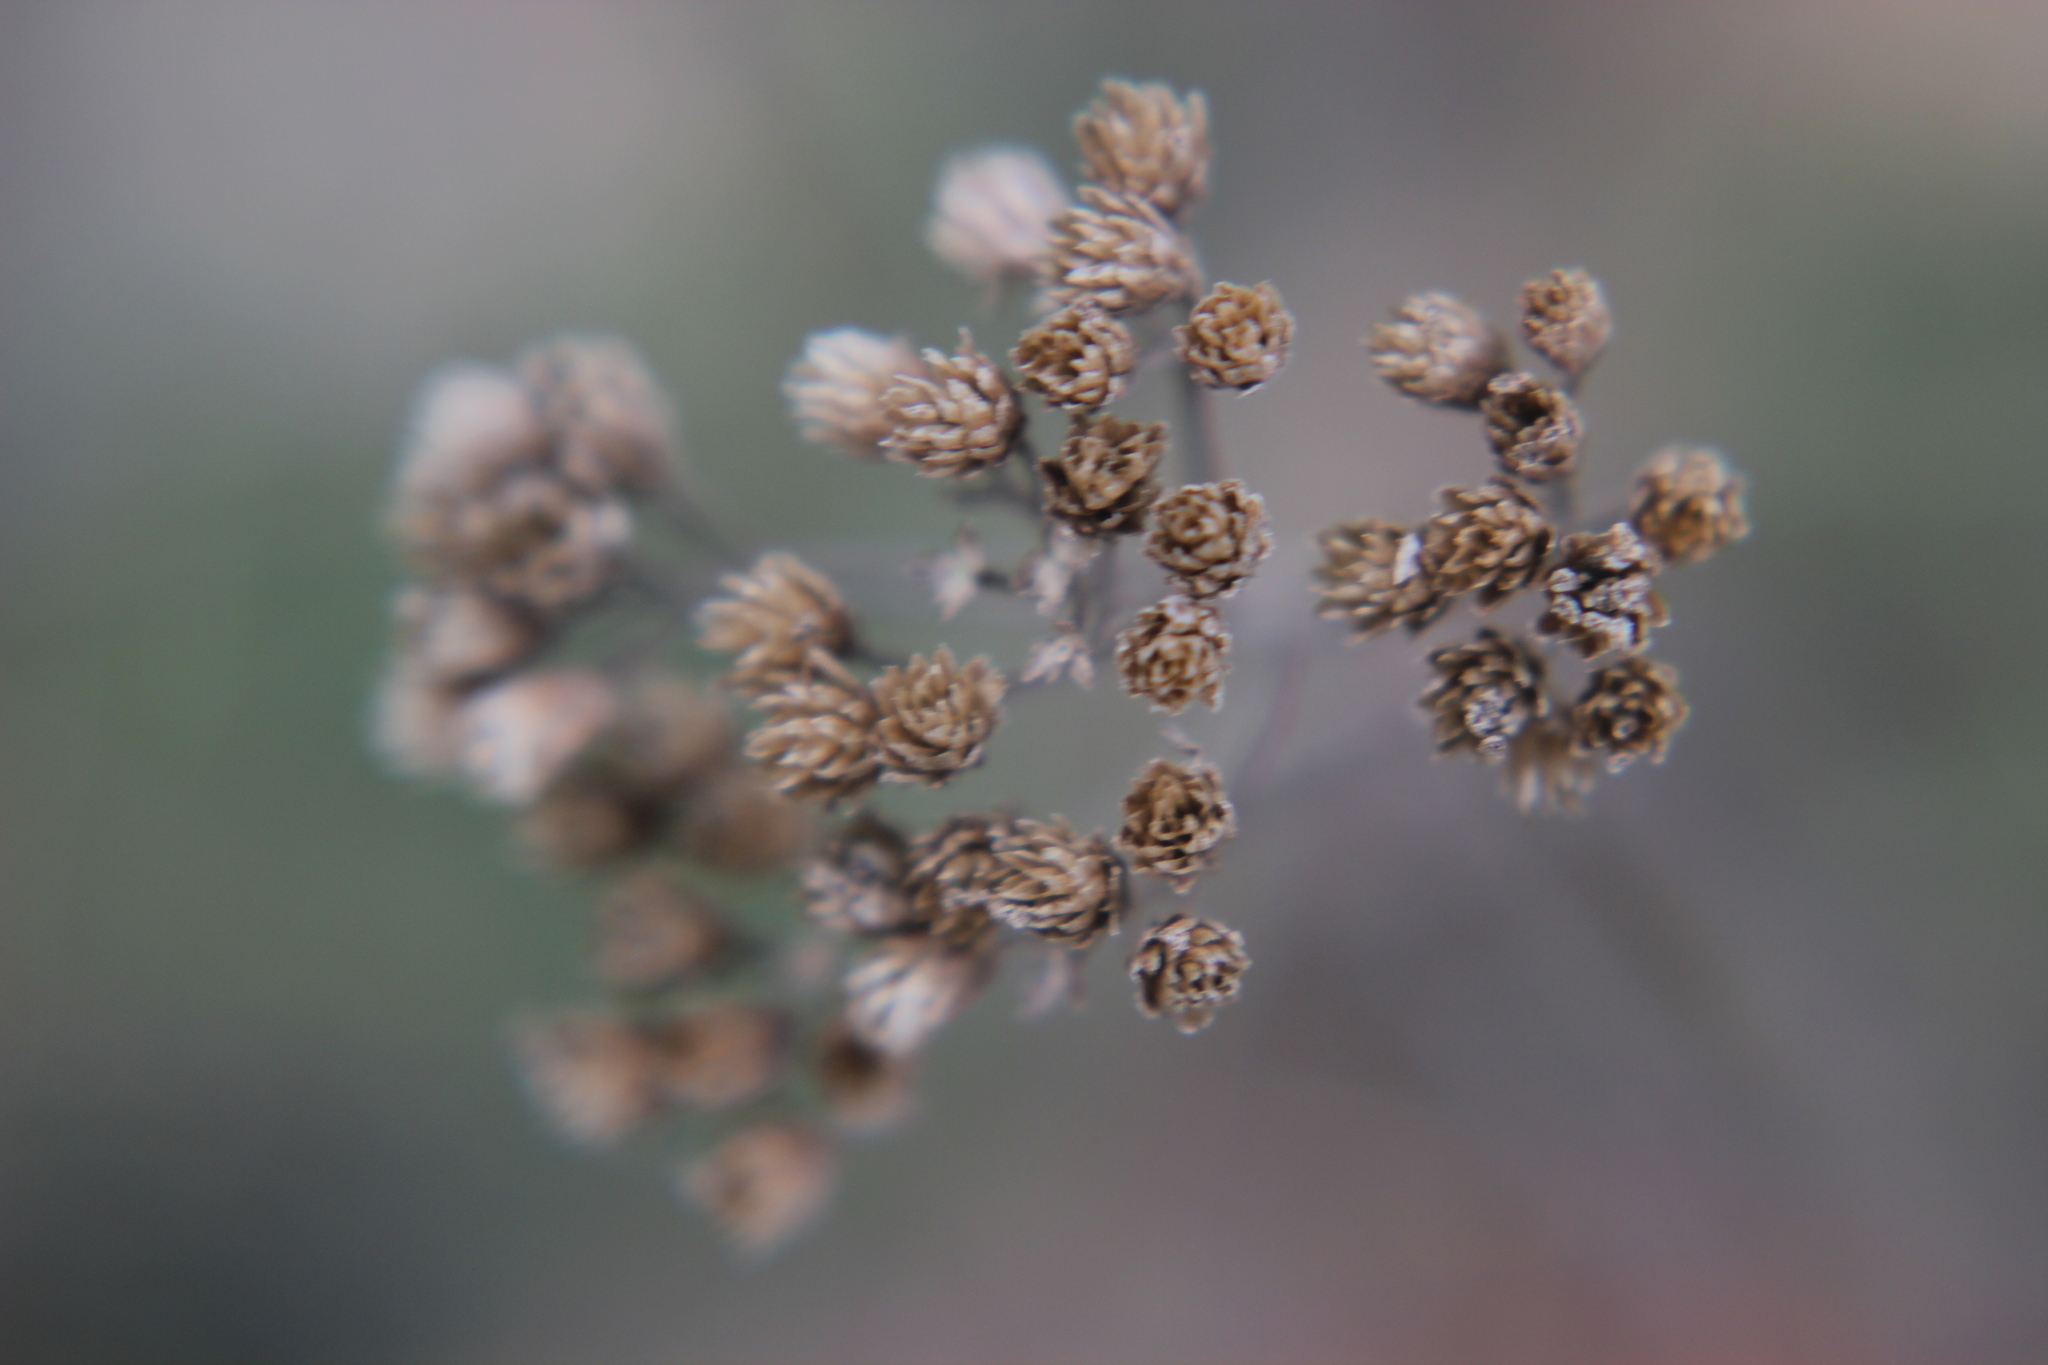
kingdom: Plantae
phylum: Tracheophyta
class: Magnoliopsida
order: Asterales
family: Asteraceae
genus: Achillea
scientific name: Achillea millefolium
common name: Yarrow
